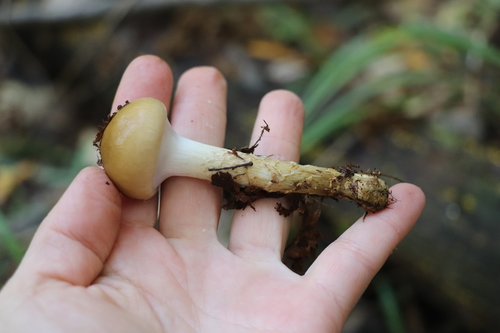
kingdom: Fungi
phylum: Basidiomycota
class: Agaricomycetes
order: Agaricales
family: Cortinariaceae
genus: Cortinarius
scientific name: Cortinarius trivialis
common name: Girdled webcap
